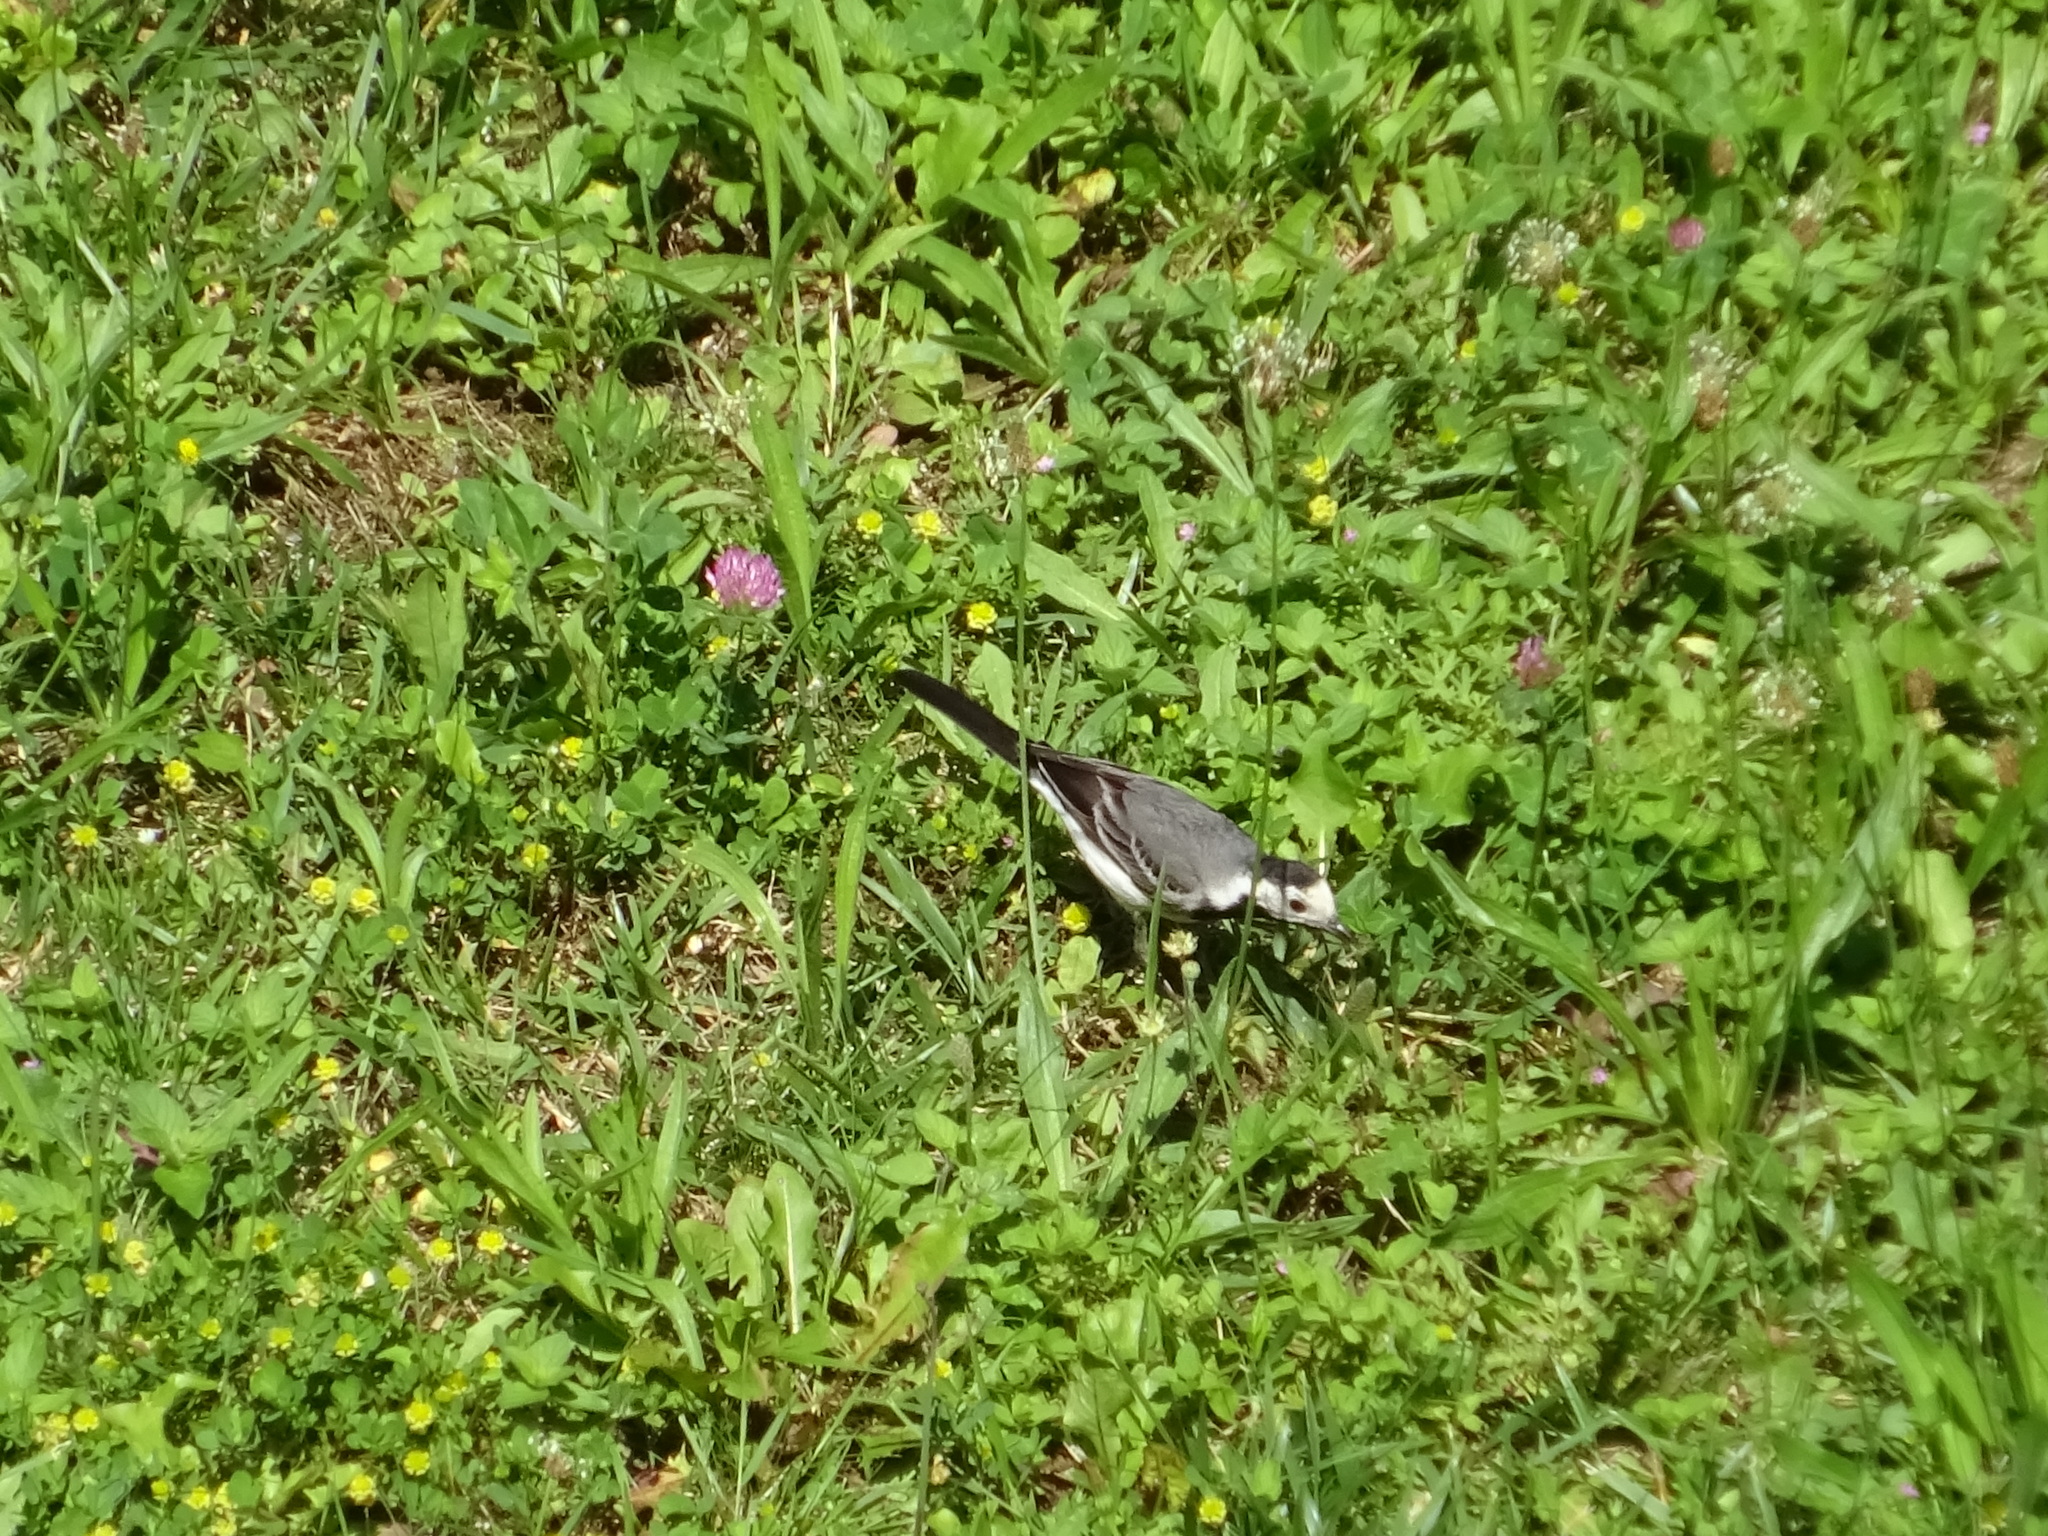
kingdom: Animalia
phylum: Chordata
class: Aves
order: Passeriformes
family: Motacillidae
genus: Motacilla
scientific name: Motacilla alba
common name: White wagtail
